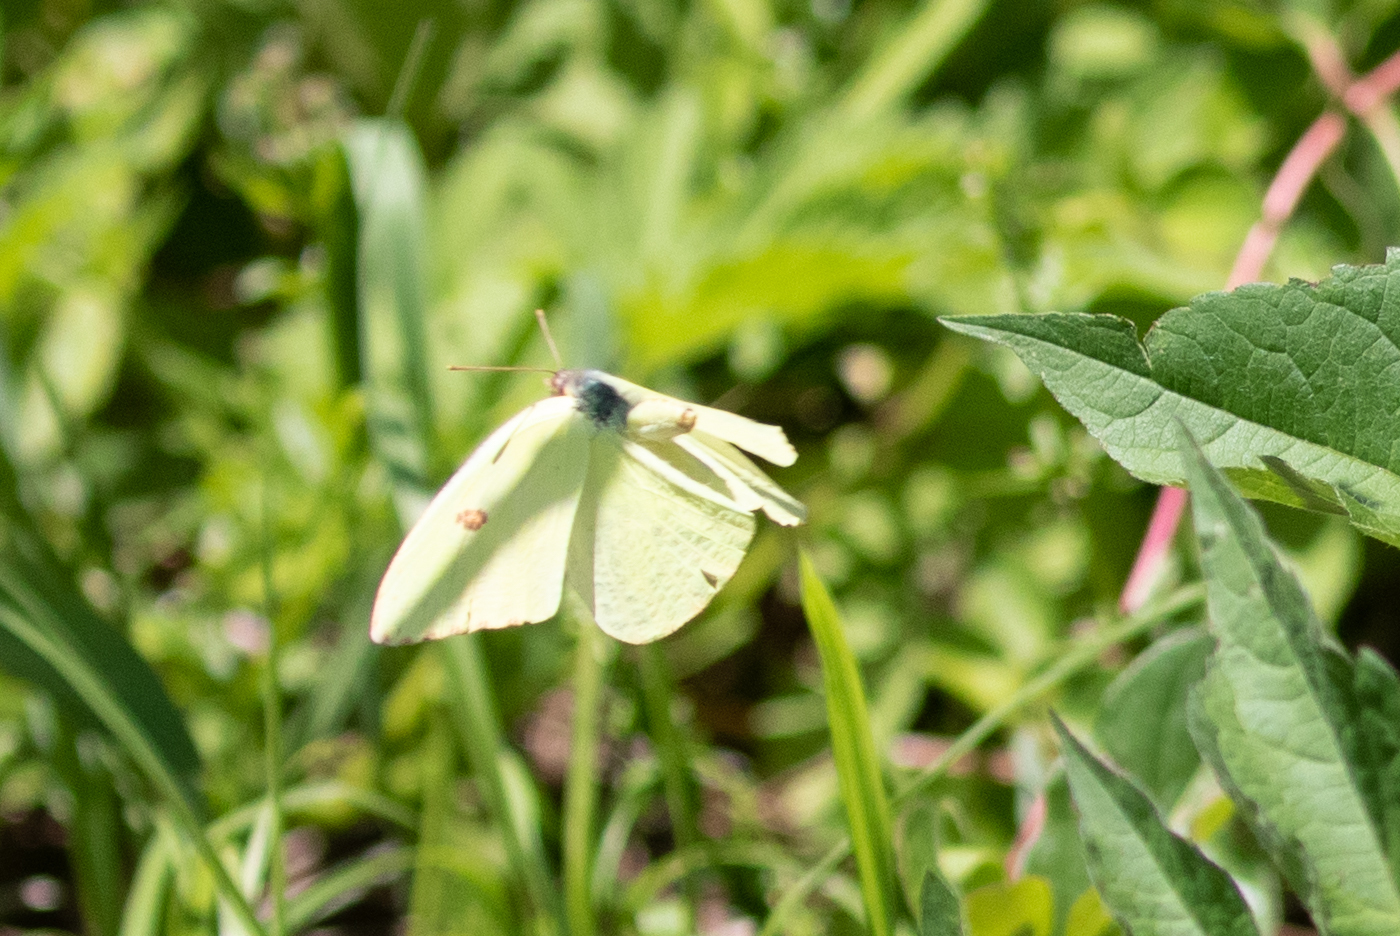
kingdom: Animalia
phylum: Arthropoda
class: Insecta
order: Lepidoptera
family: Pieridae
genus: Phoebis
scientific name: Phoebis sennae
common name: Cloudless sulphur
